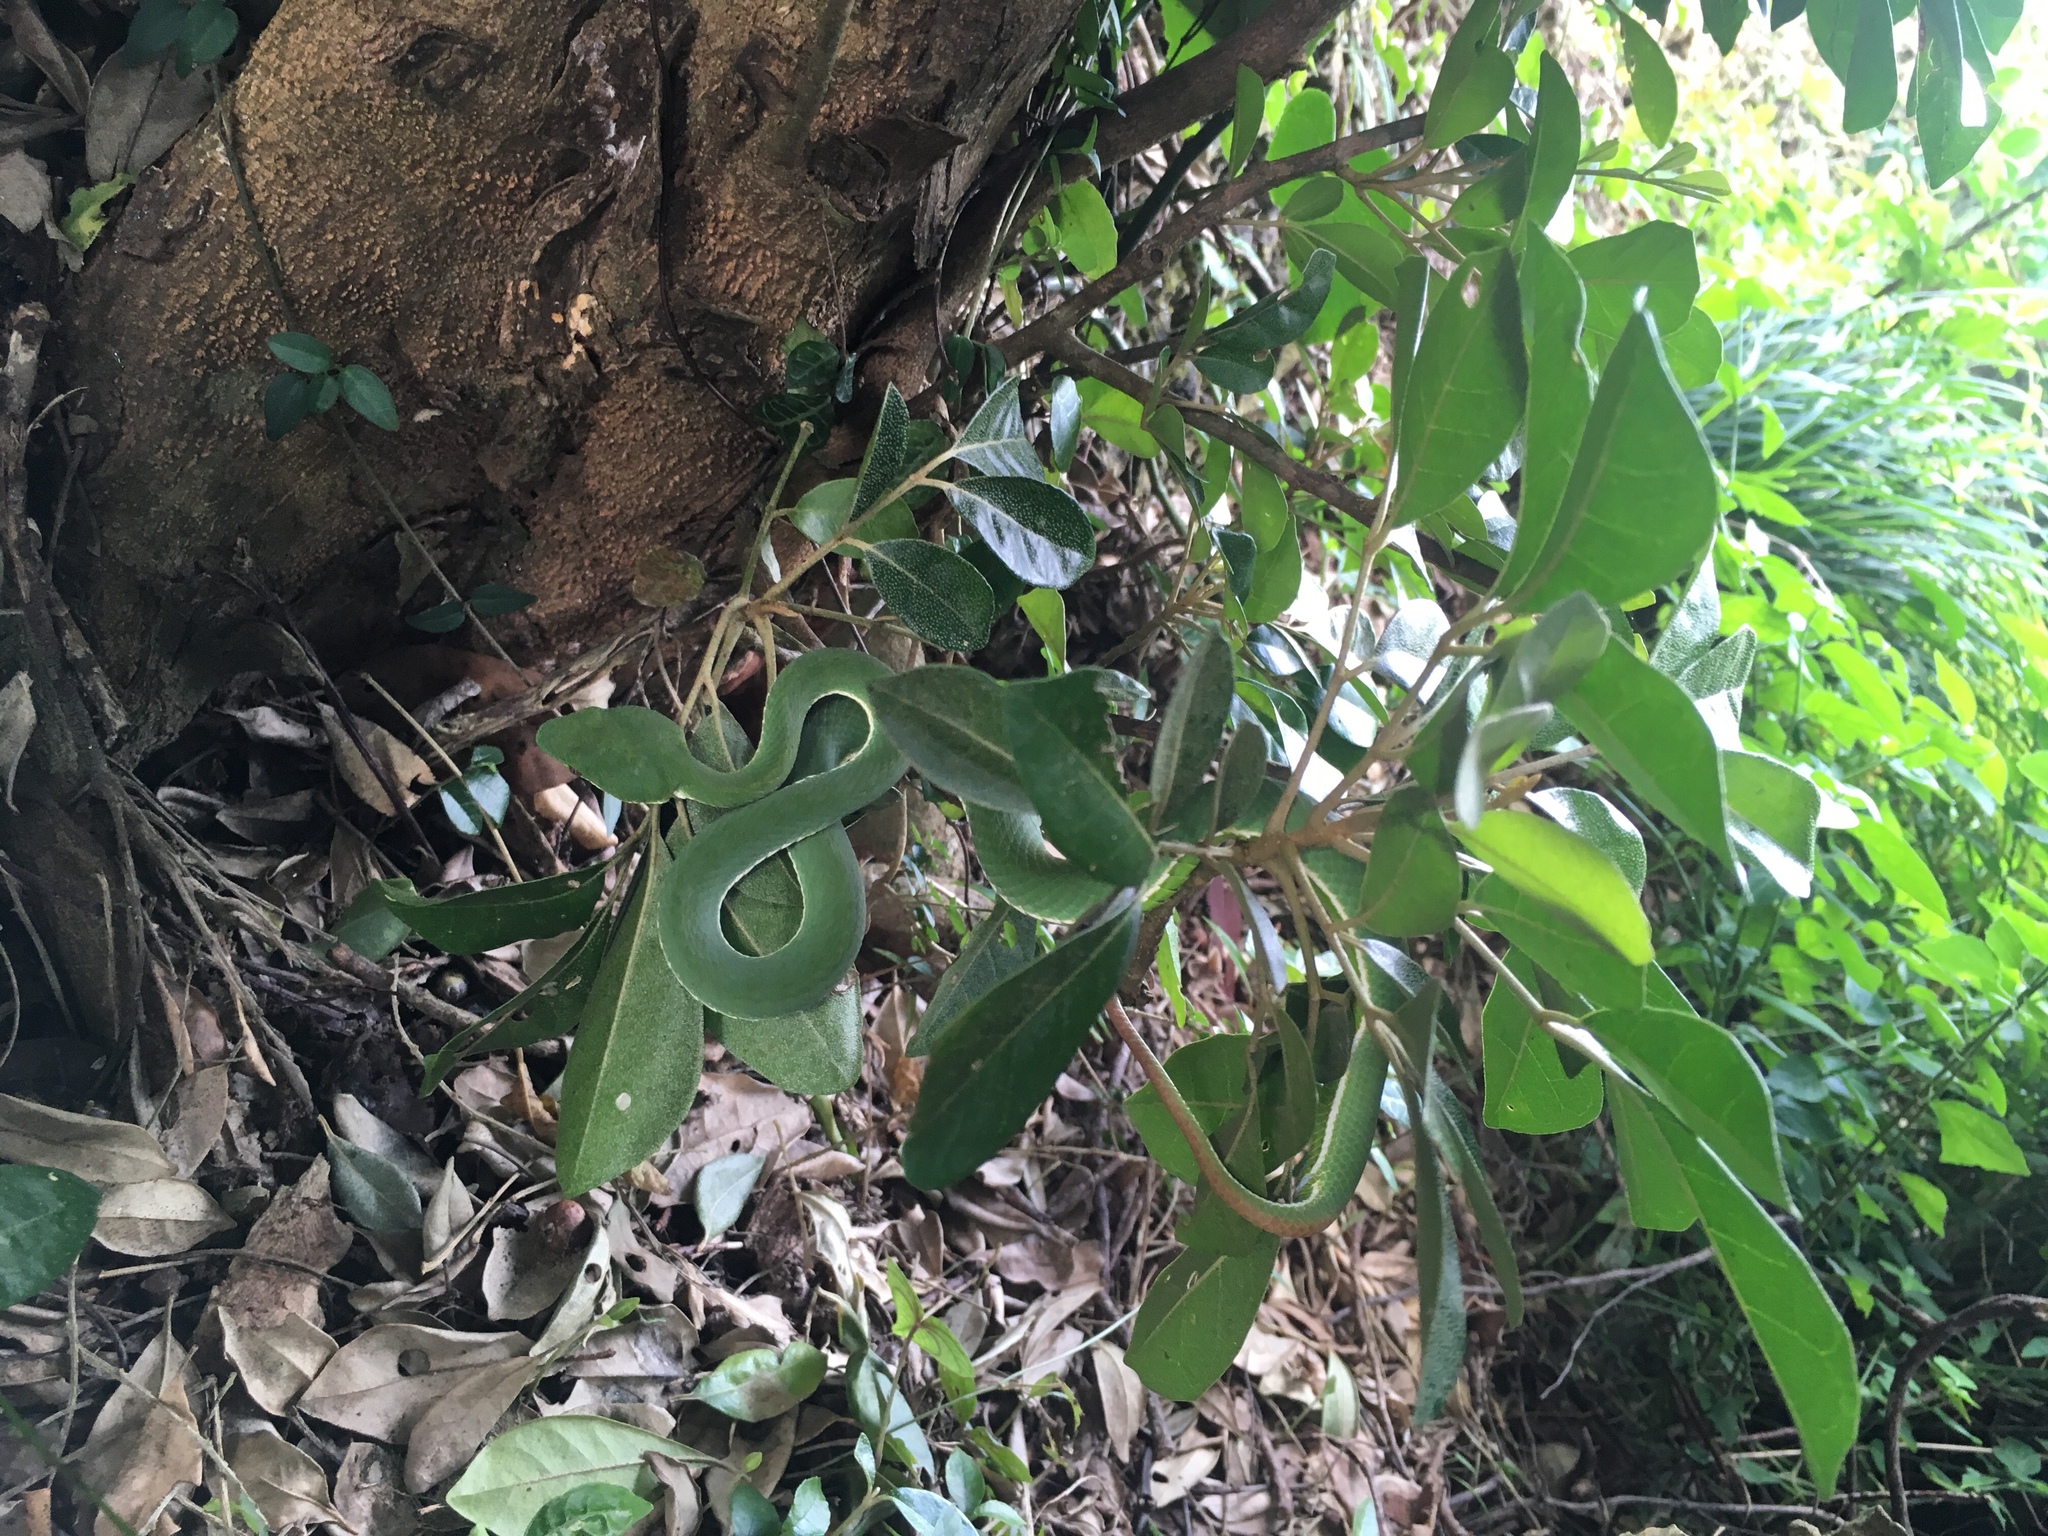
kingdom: Animalia
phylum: Chordata
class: Squamata
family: Viperidae
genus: Trimeresurus
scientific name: Trimeresurus stejnegeri
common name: Chen’s bamboo pit viper
